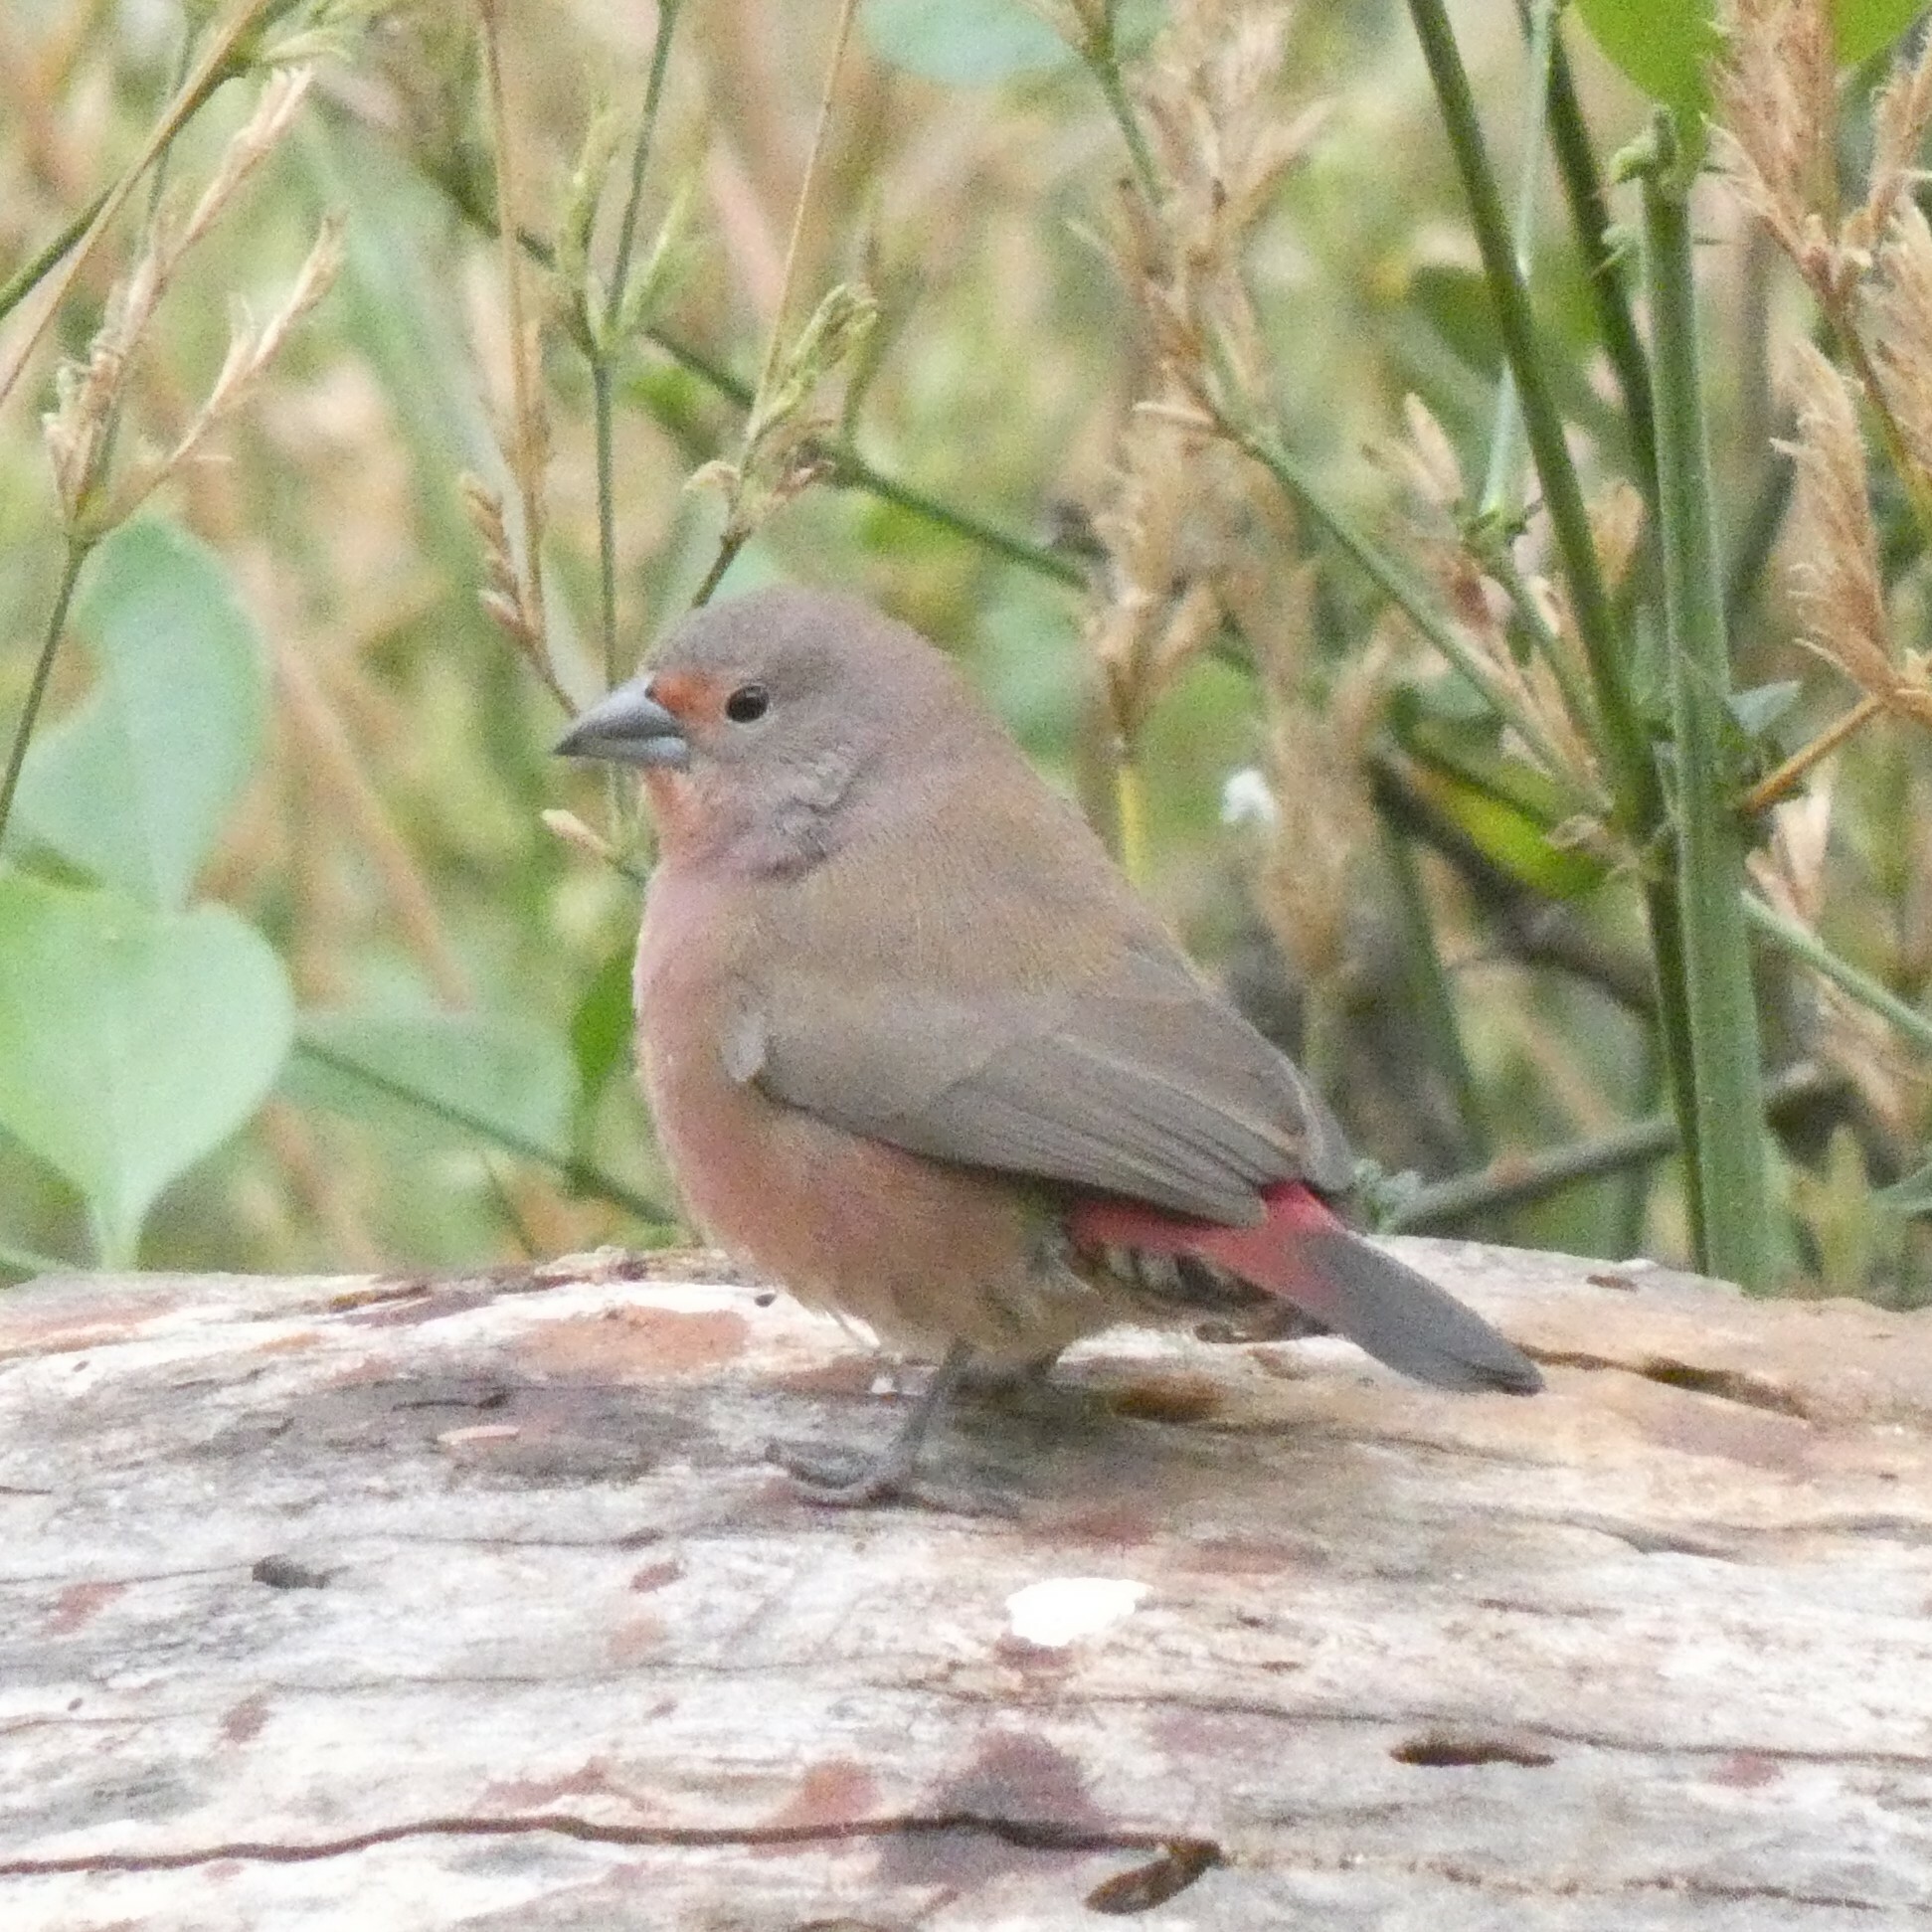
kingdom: Animalia
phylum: Chordata
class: Aves
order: Passeriformes
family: Estrildidae
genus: Lagonosticta
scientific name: Lagonosticta rhodopareia
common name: Jameson's firefinch
